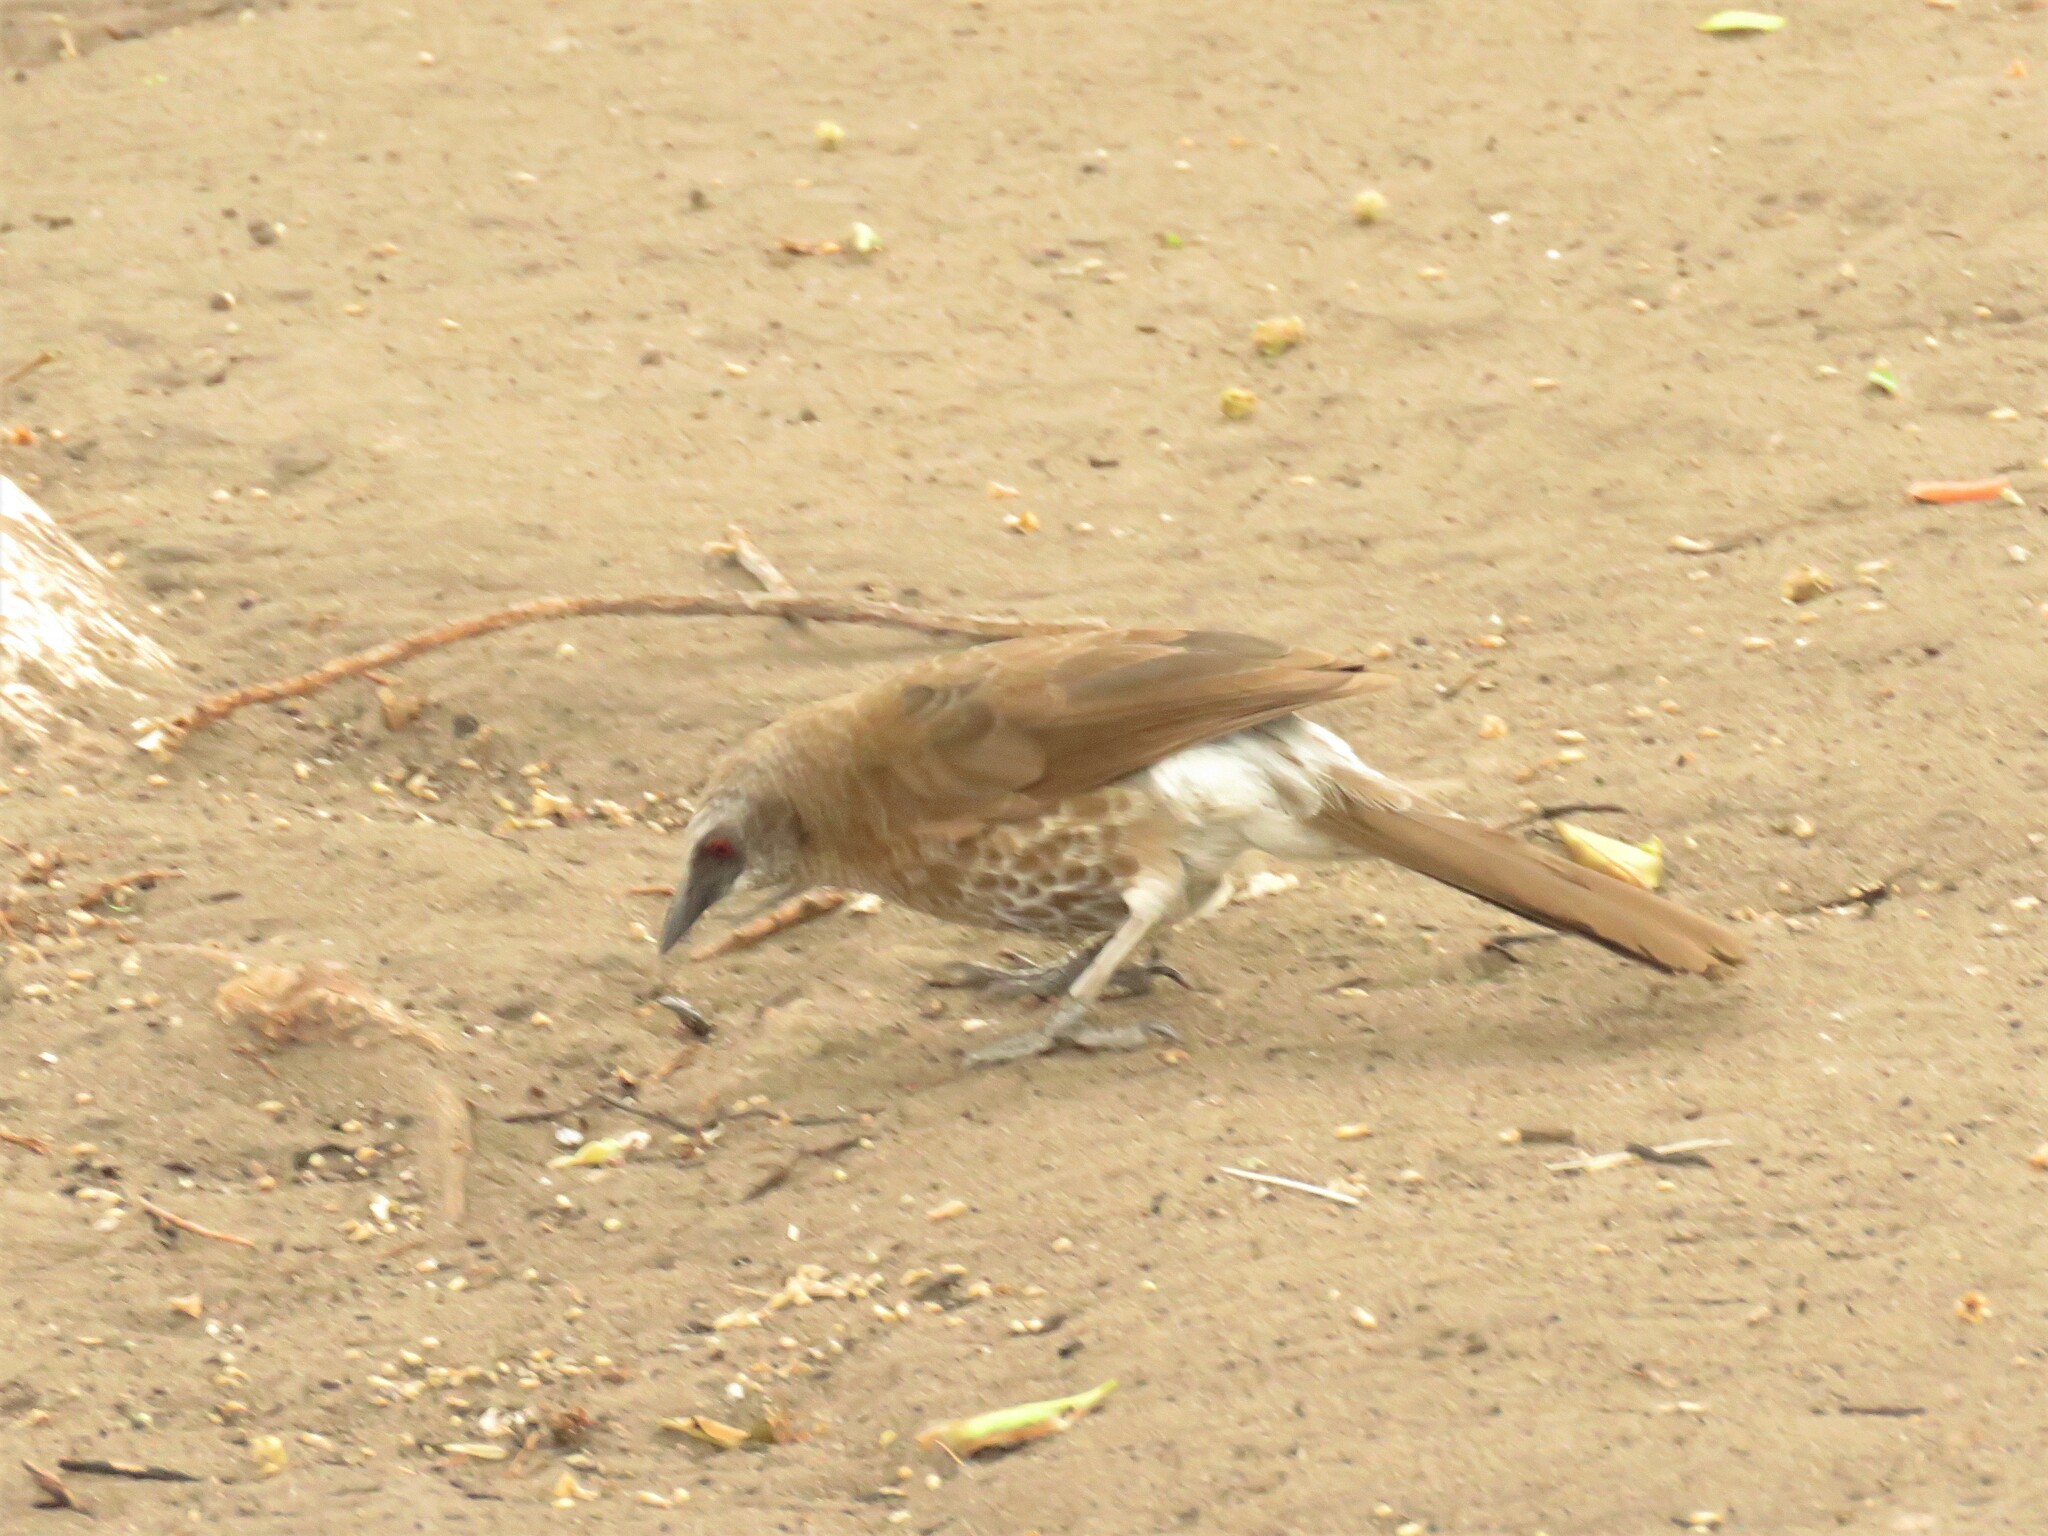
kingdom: Animalia
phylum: Chordata
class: Aves
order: Passeriformes
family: Leiothrichidae
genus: Turdoides
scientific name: Turdoides hartlaubii
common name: Hartlaub's babbler
